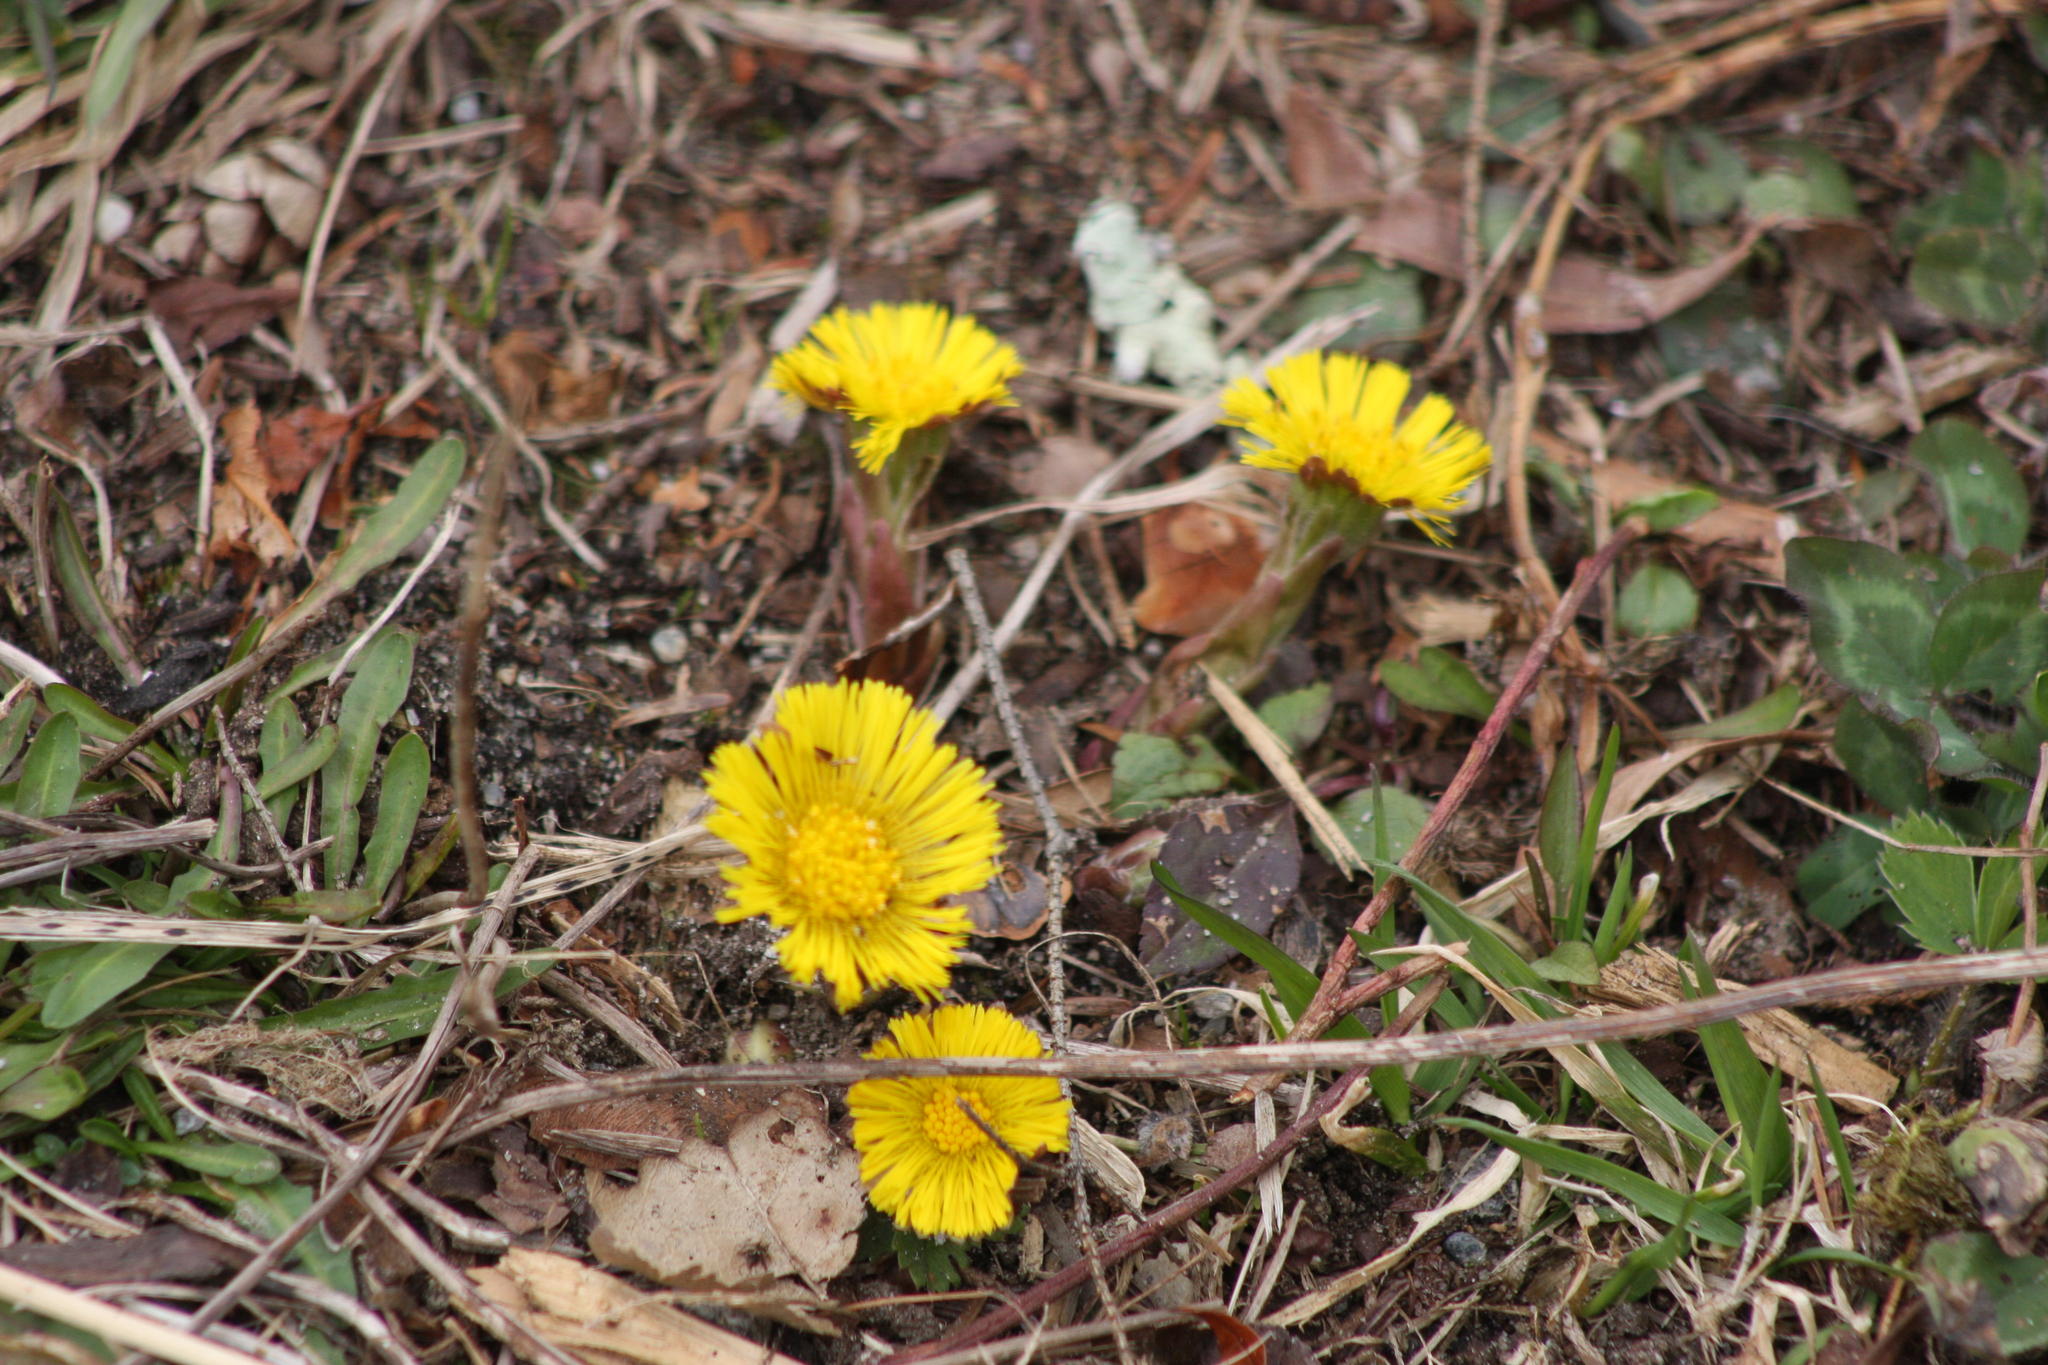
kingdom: Plantae
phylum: Tracheophyta
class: Magnoliopsida
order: Asterales
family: Asteraceae
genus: Tussilago
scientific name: Tussilago farfara
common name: Coltsfoot
